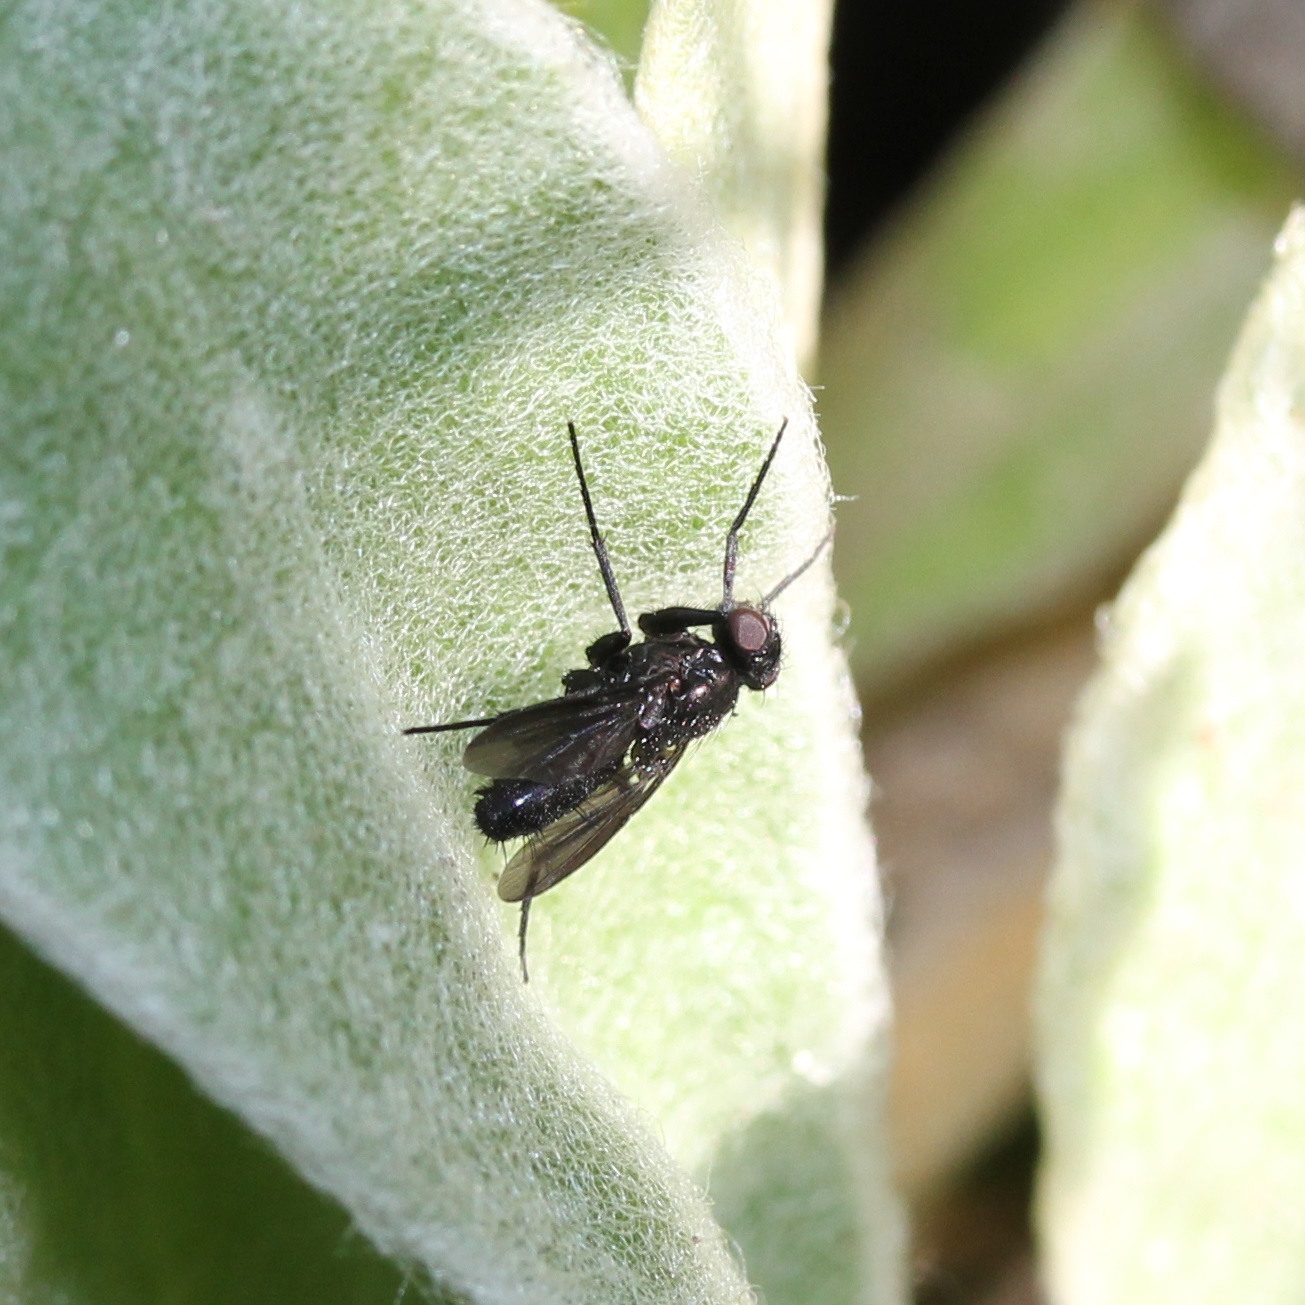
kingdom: Animalia
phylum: Arthropoda
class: Insecta
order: Diptera
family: Calliphoridae
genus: Melanophora
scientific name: Melanophora roralis
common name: Smoky-winged woodlouse-fly
